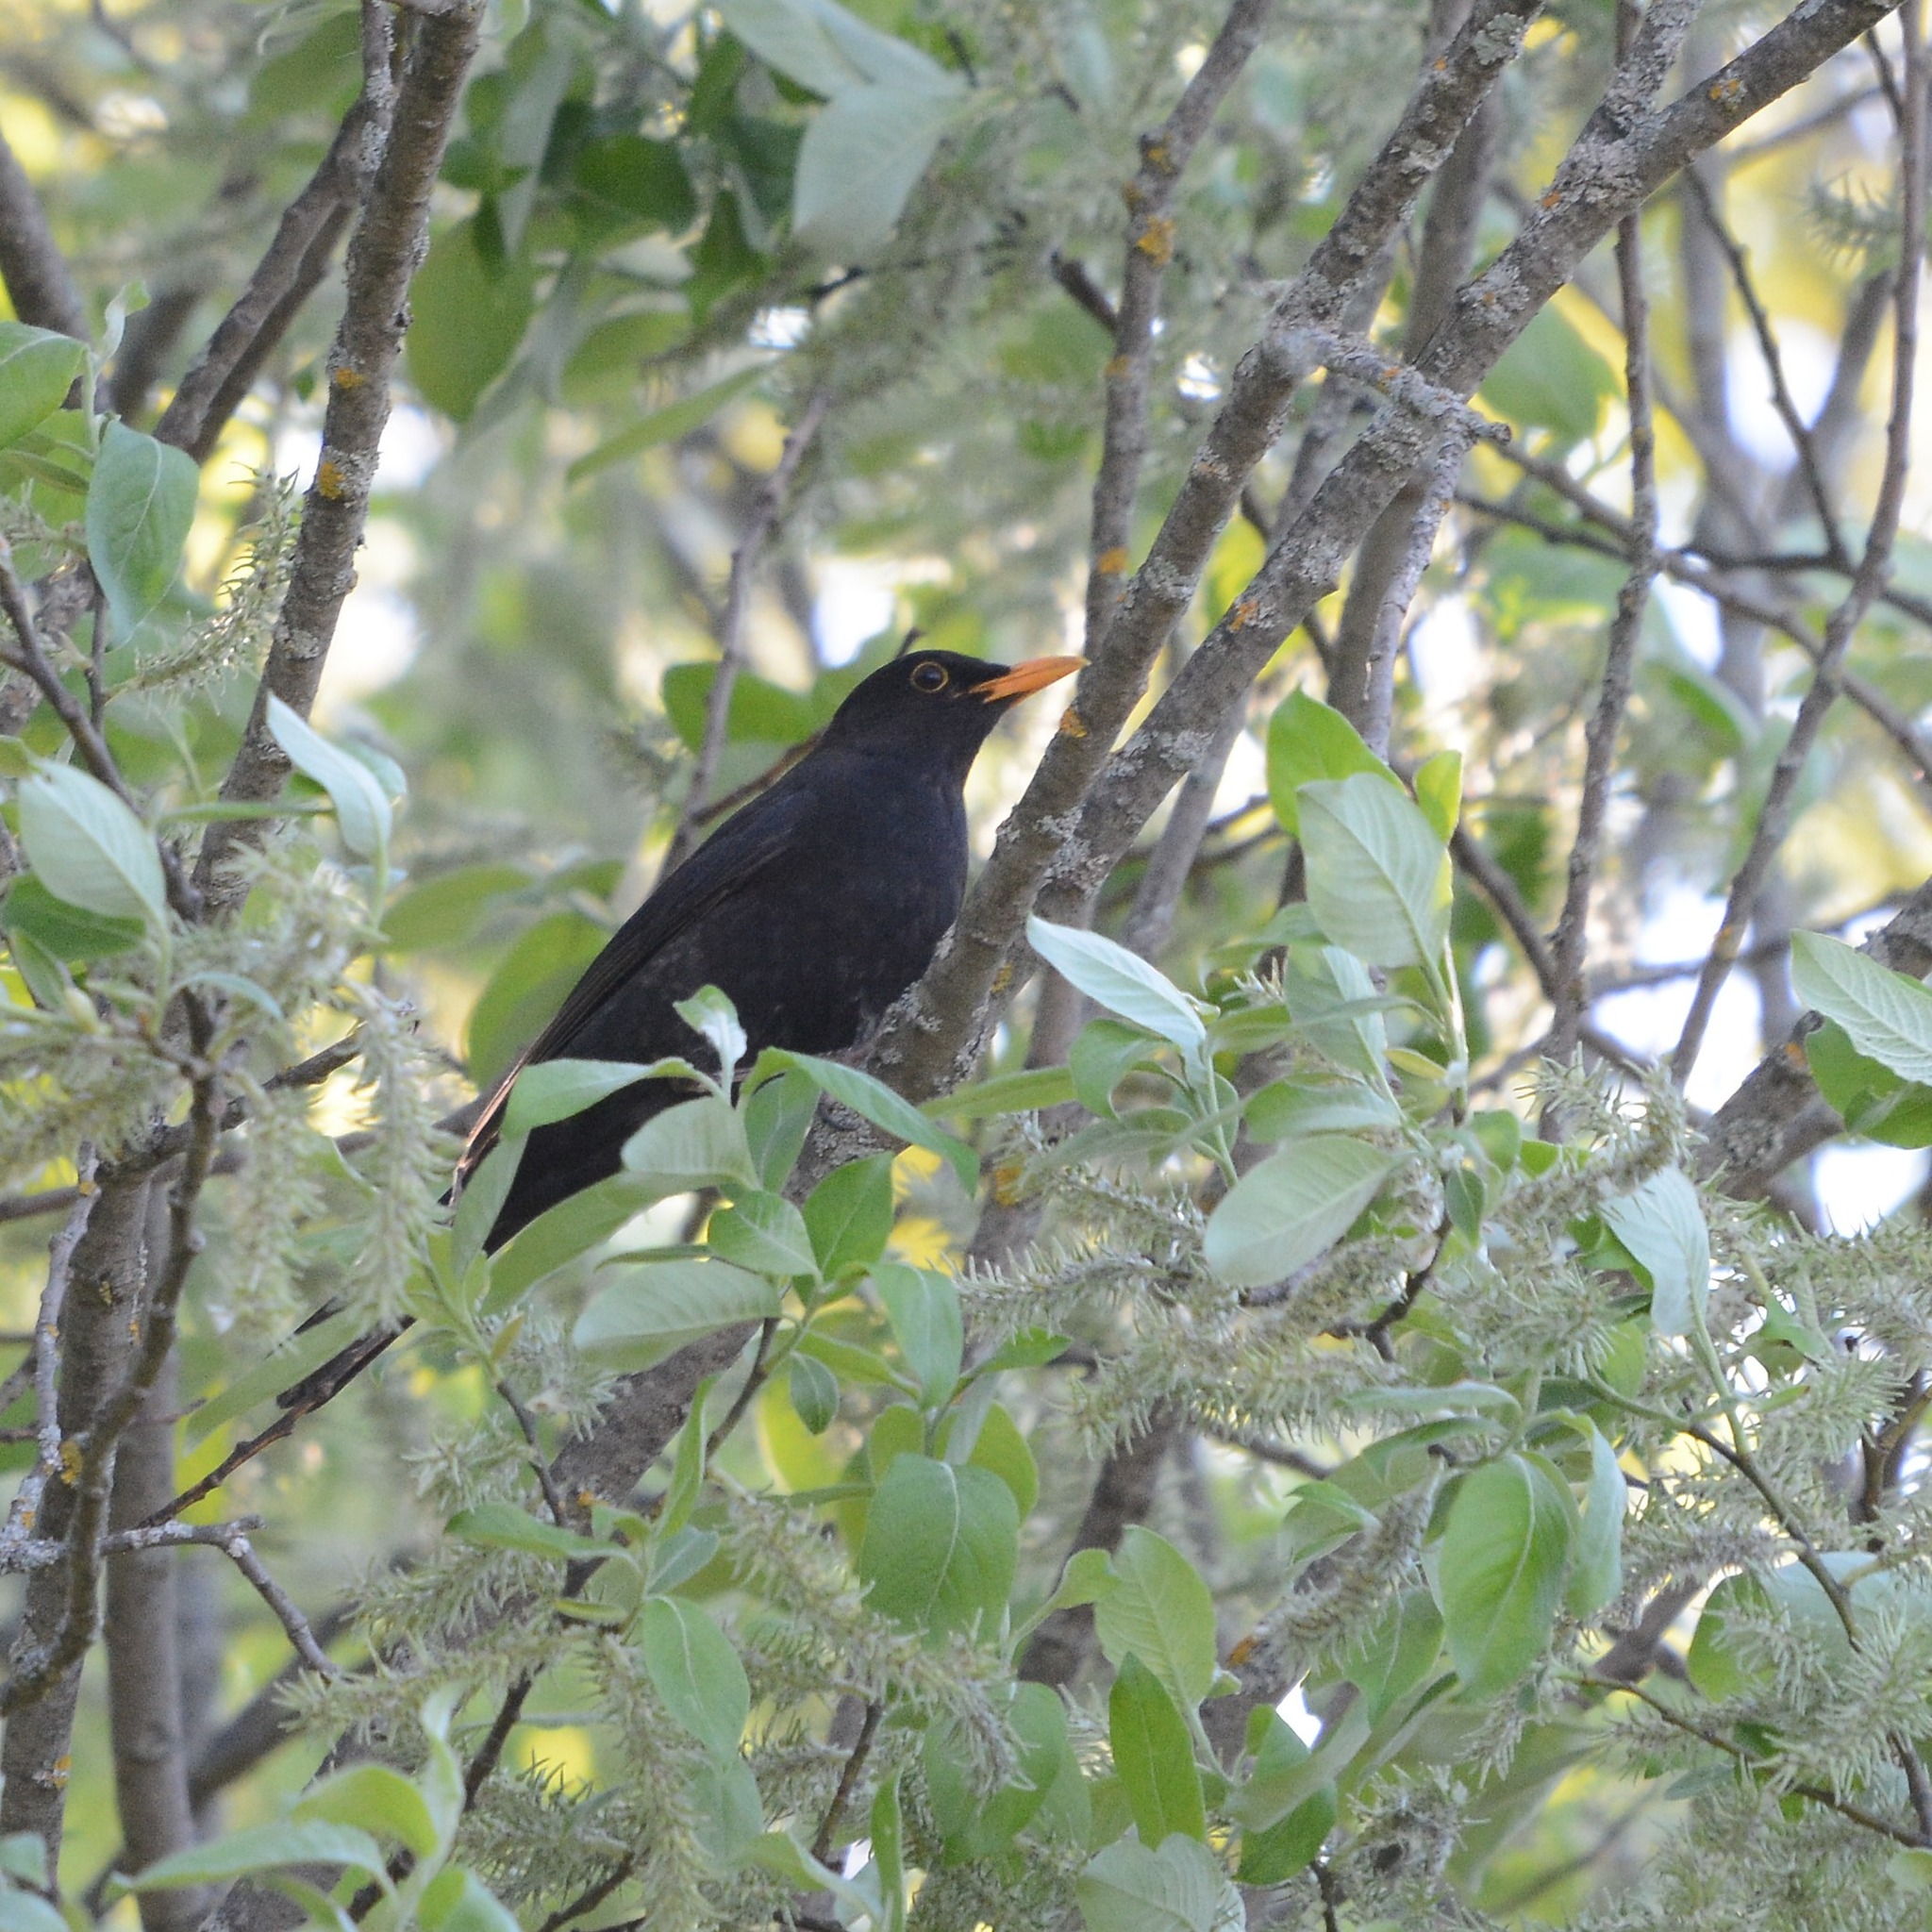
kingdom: Animalia
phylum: Chordata
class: Aves
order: Passeriformes
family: Turdidae
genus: Turdus
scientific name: Turdus merula
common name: Common blackbird
